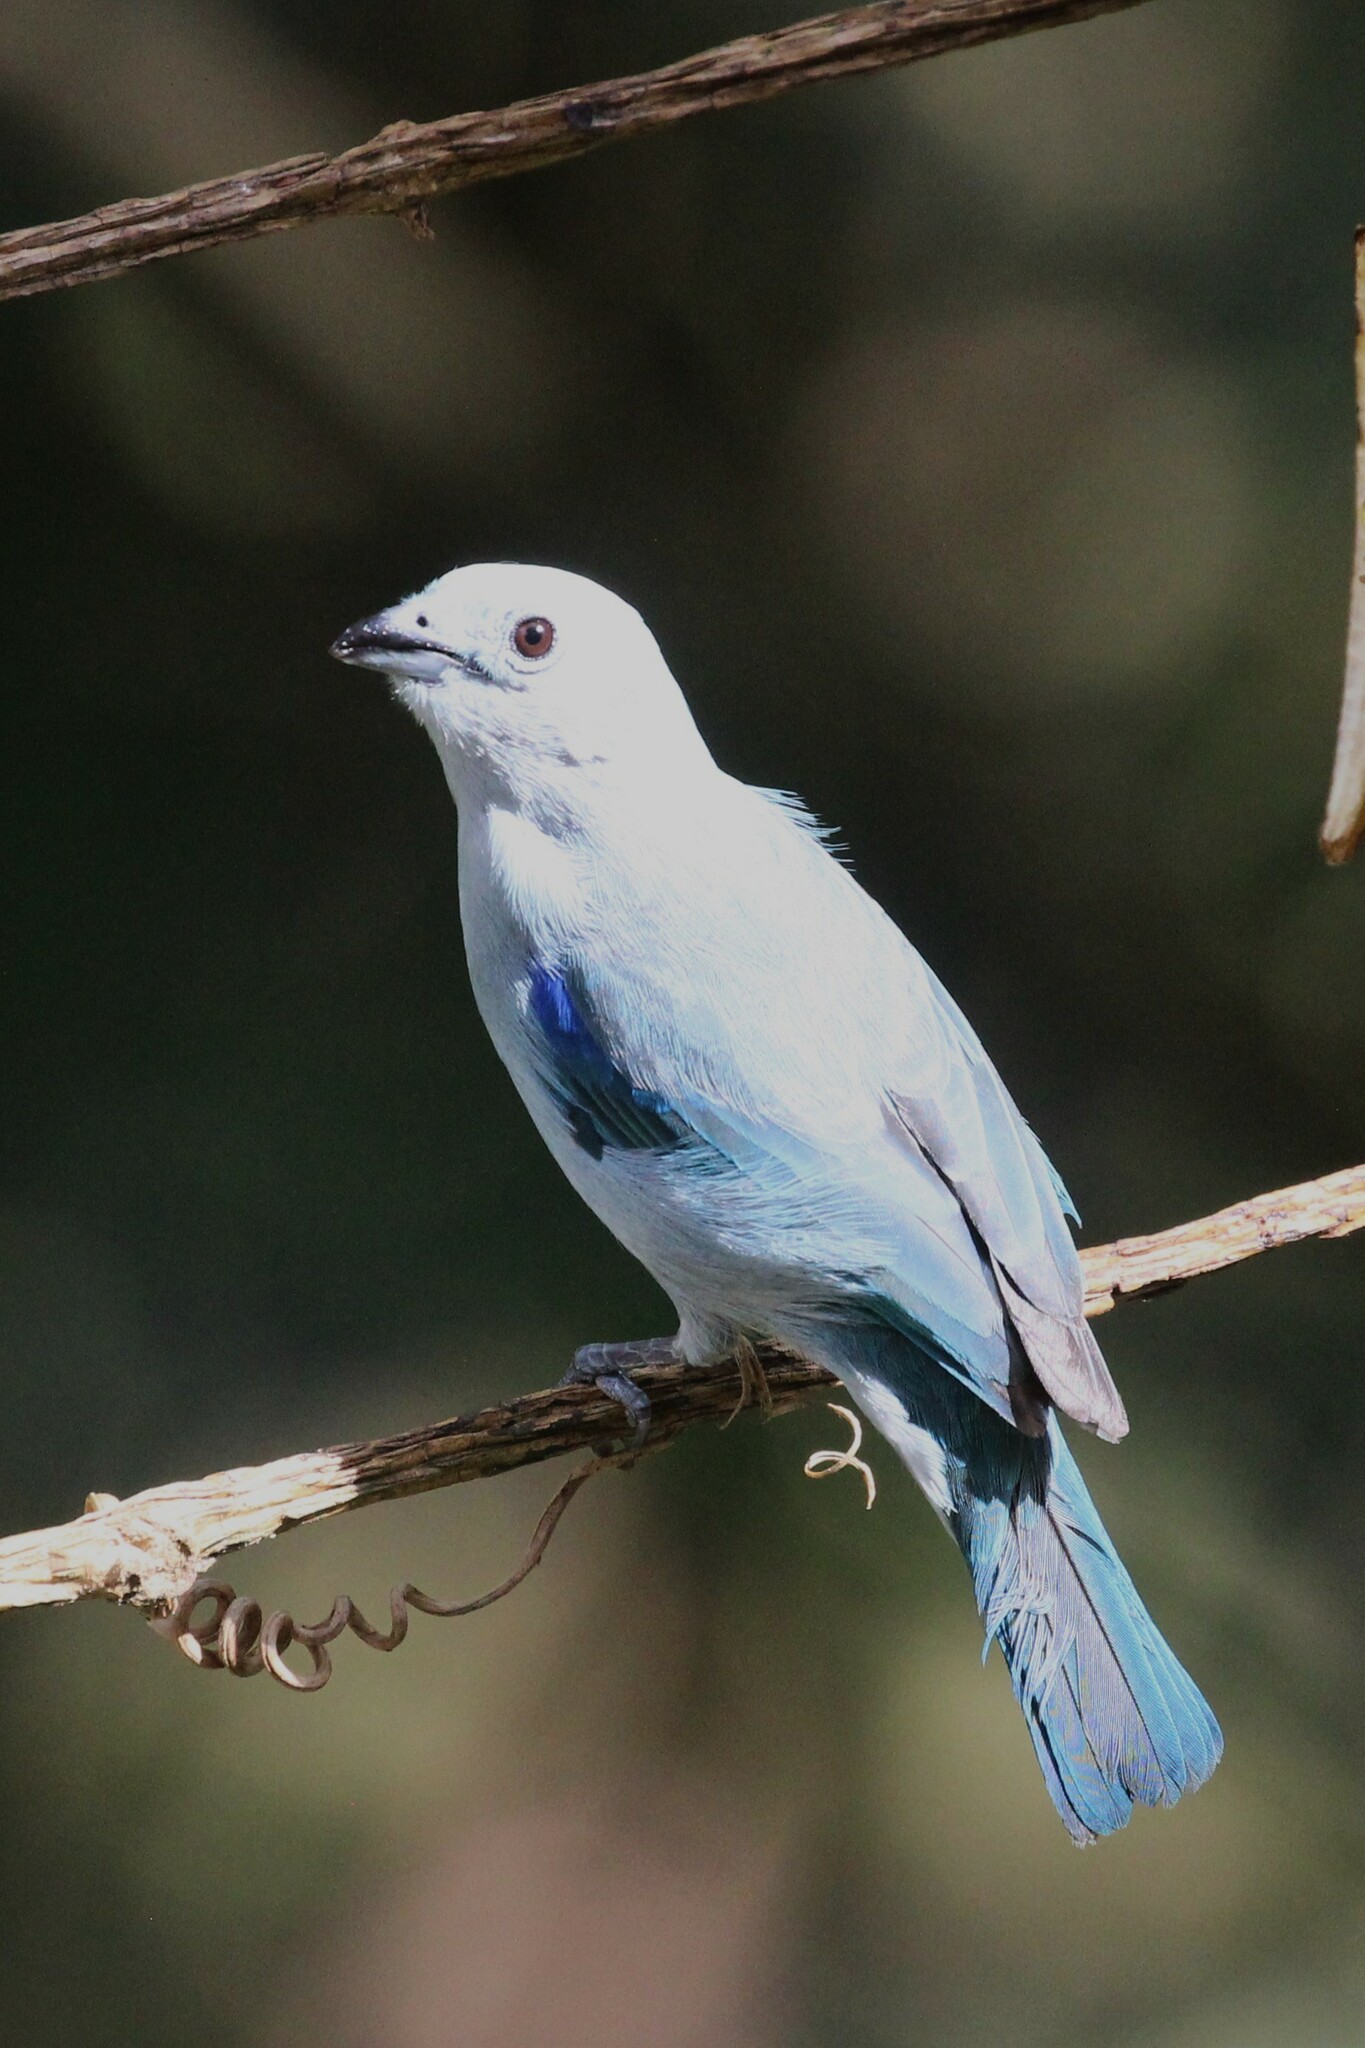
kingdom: Animalia
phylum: Chordata
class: Aves
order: Passeriformes
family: Thraupidae
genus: Thraupis
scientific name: Thraupis episcopus
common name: Blue-grey tanager
